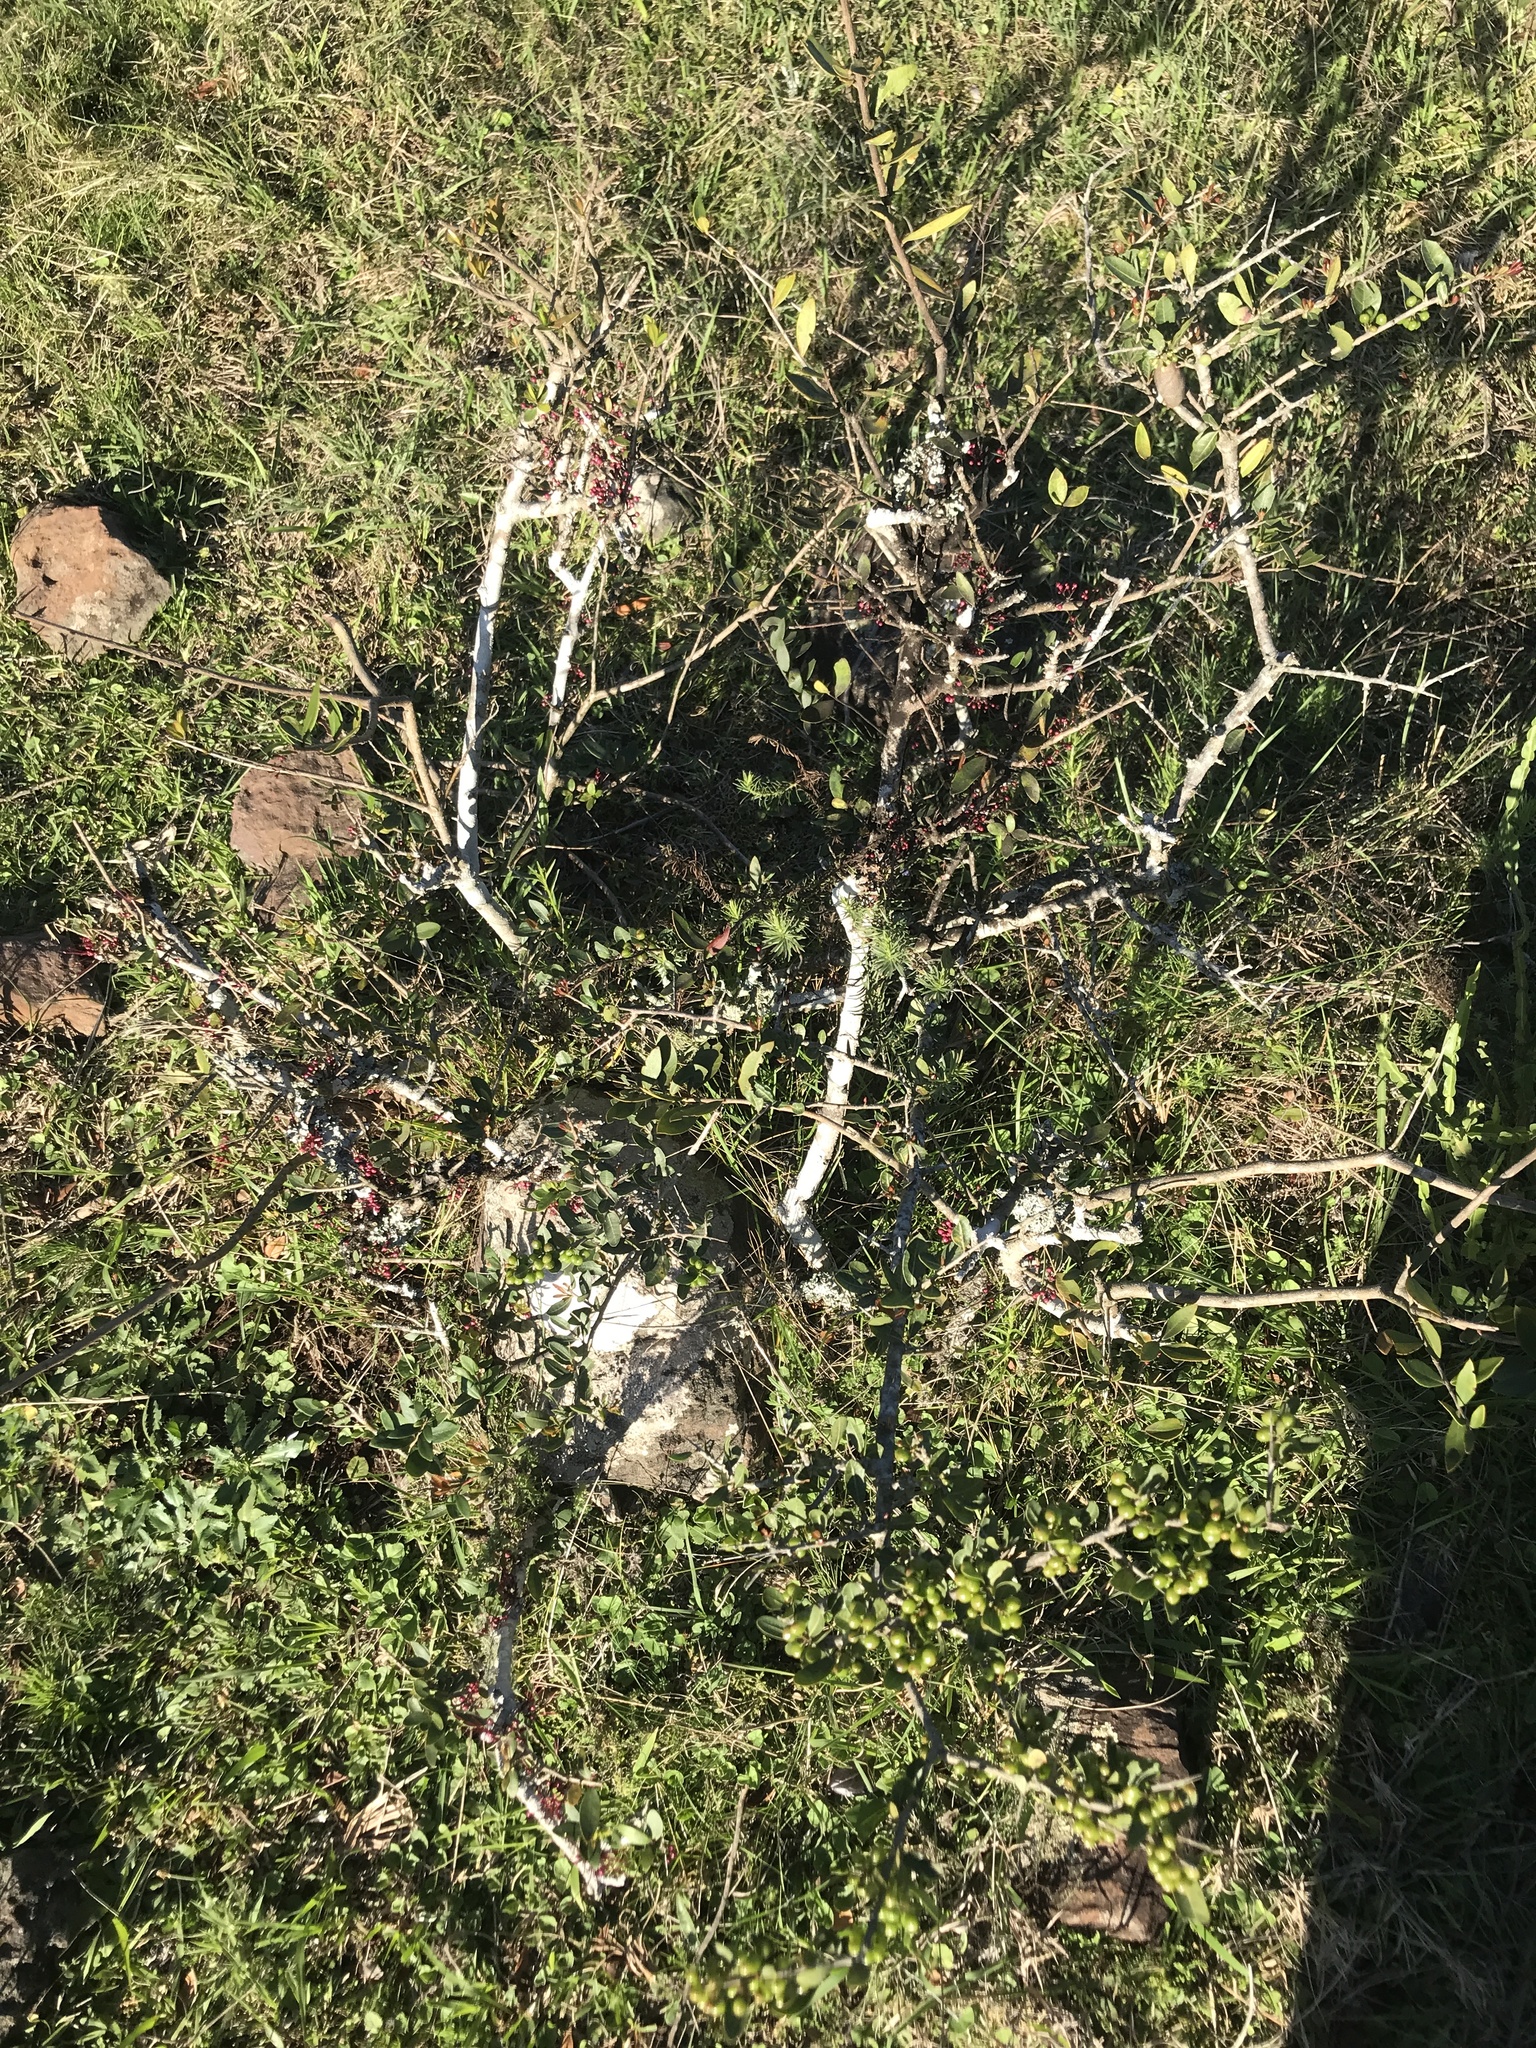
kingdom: Plantae
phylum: Tracheophyta
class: Magnoliopsida
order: Myrtales
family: Myrtaceae
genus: Myrrhinium
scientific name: Myrrhinium atropurpureum
